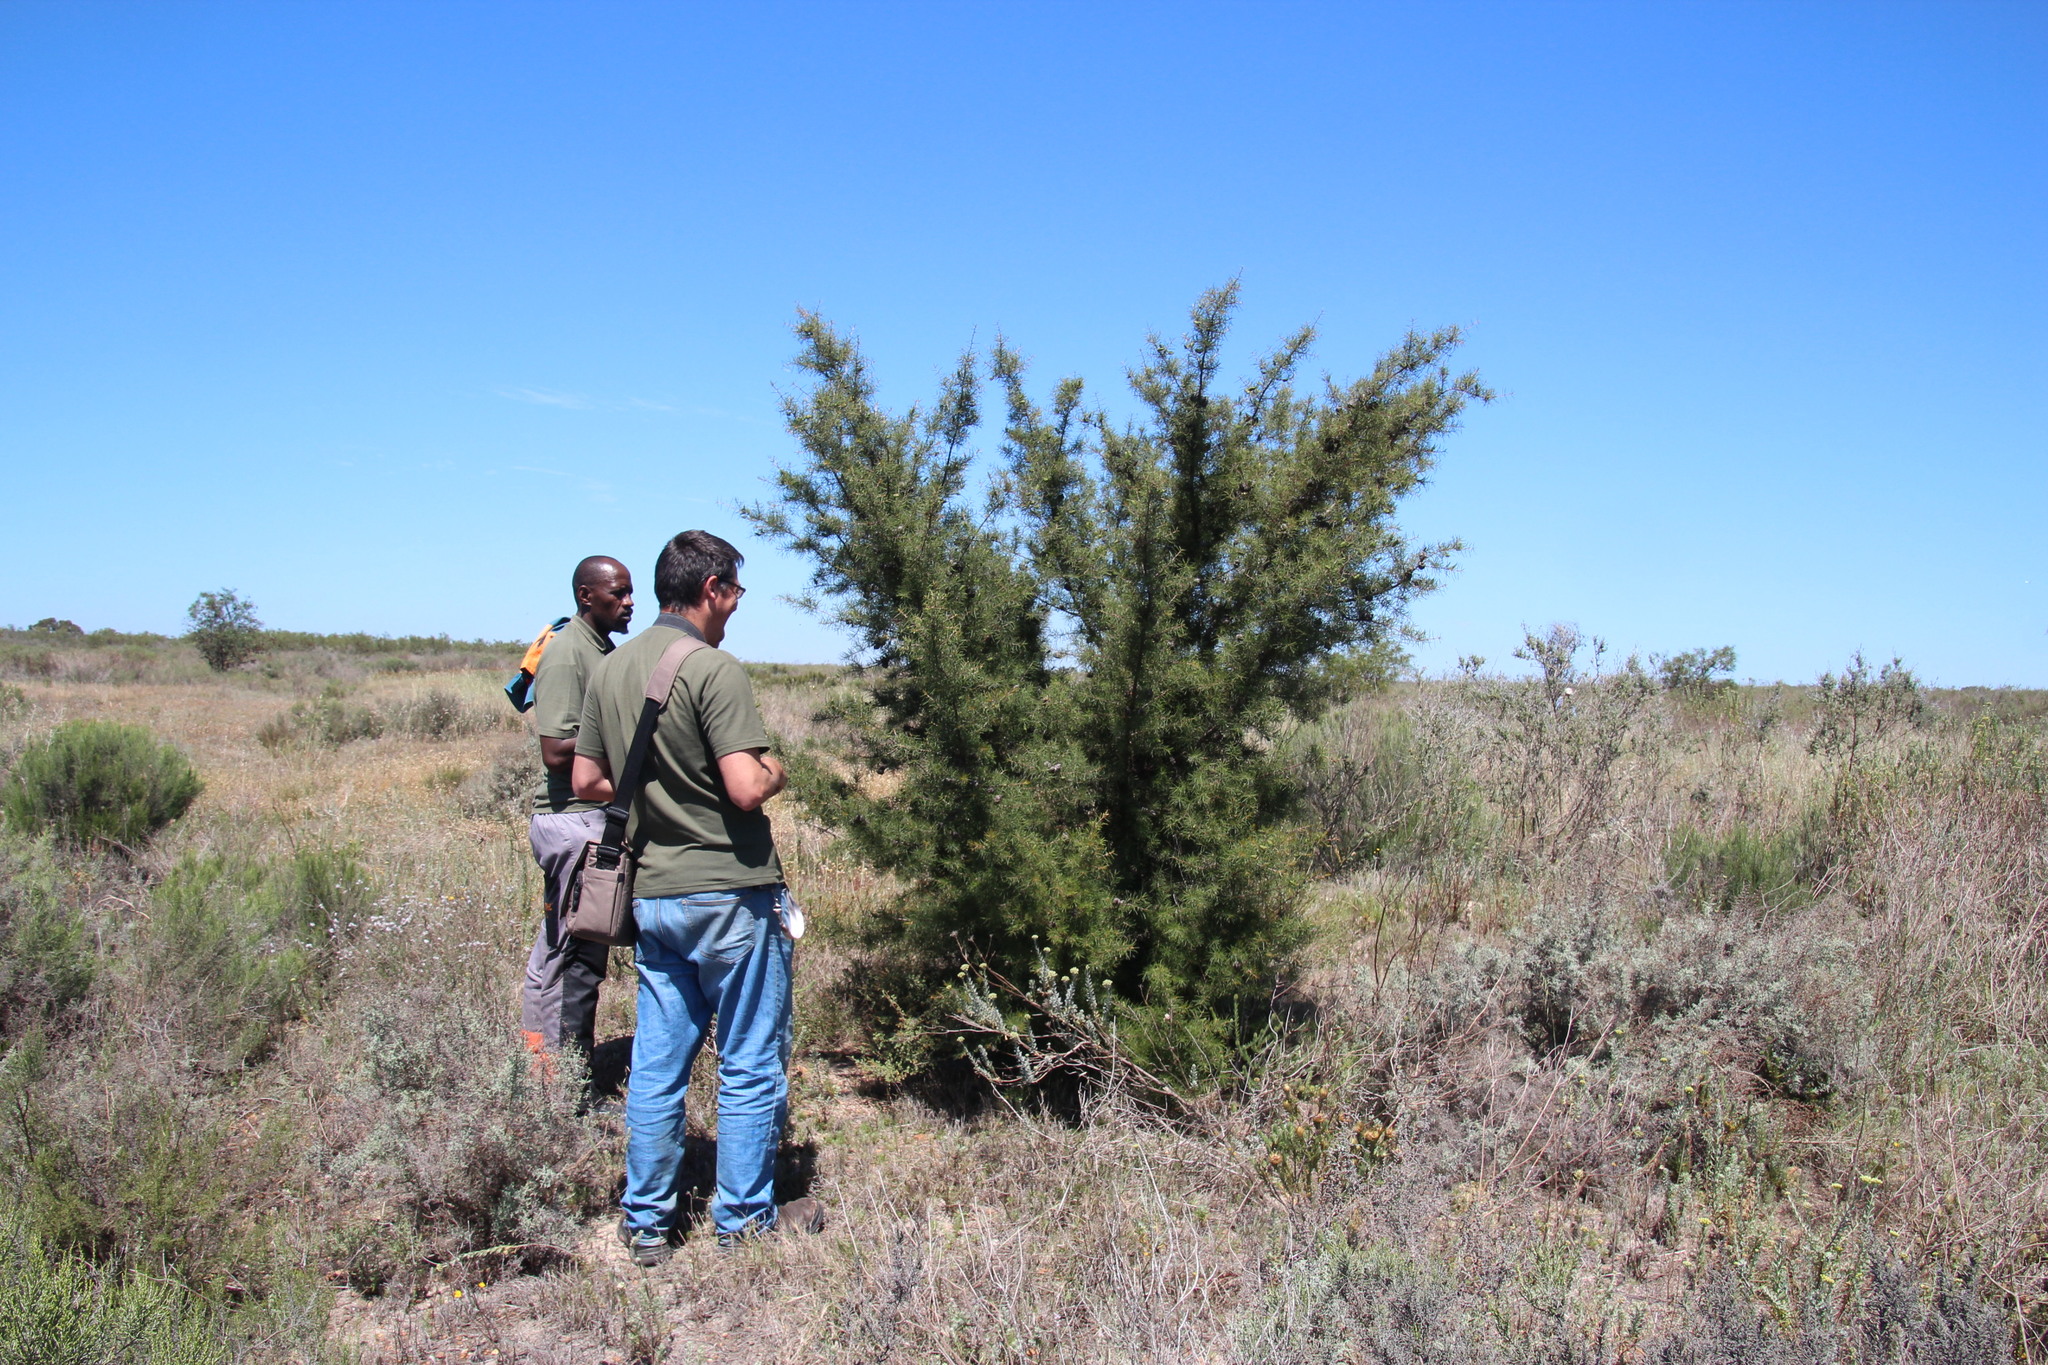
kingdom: Plantae
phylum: Tracheophyta
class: Magnoliopsida
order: Proteales
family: Proteaceae
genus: Hakea
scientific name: Hakea sericea
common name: Needle bush
